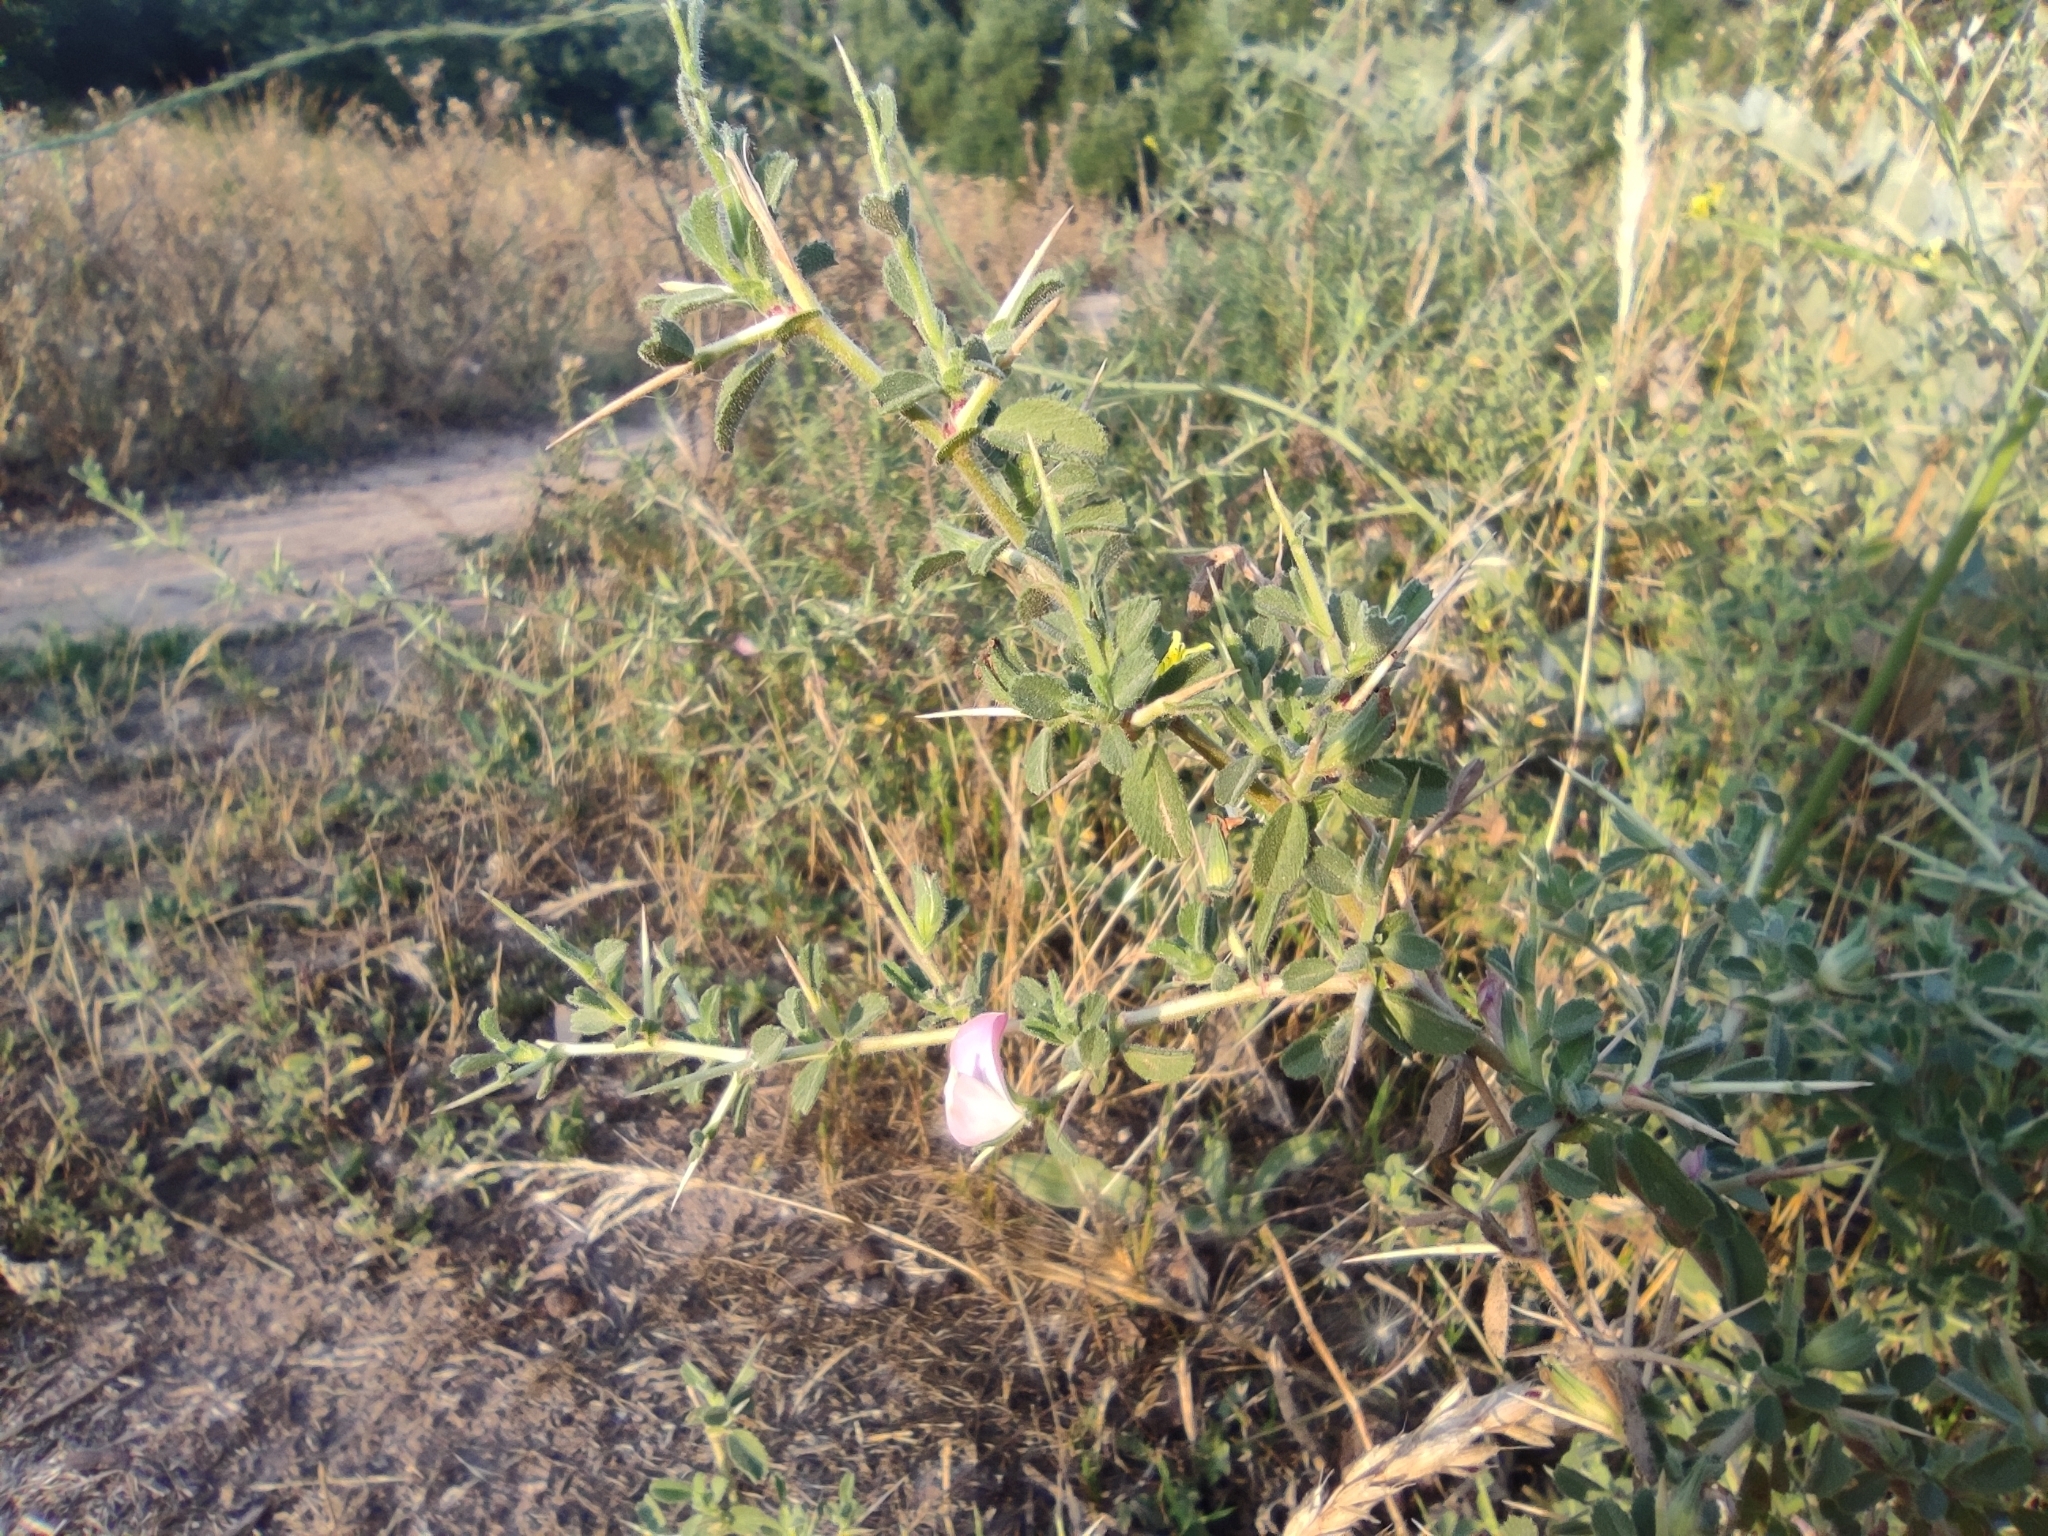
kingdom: Plantae
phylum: Tracheophyta
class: Magnoliopsida
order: Fabales
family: Fabaceae
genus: Ononis
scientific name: Ononis spinosa
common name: Spiny restharrow
